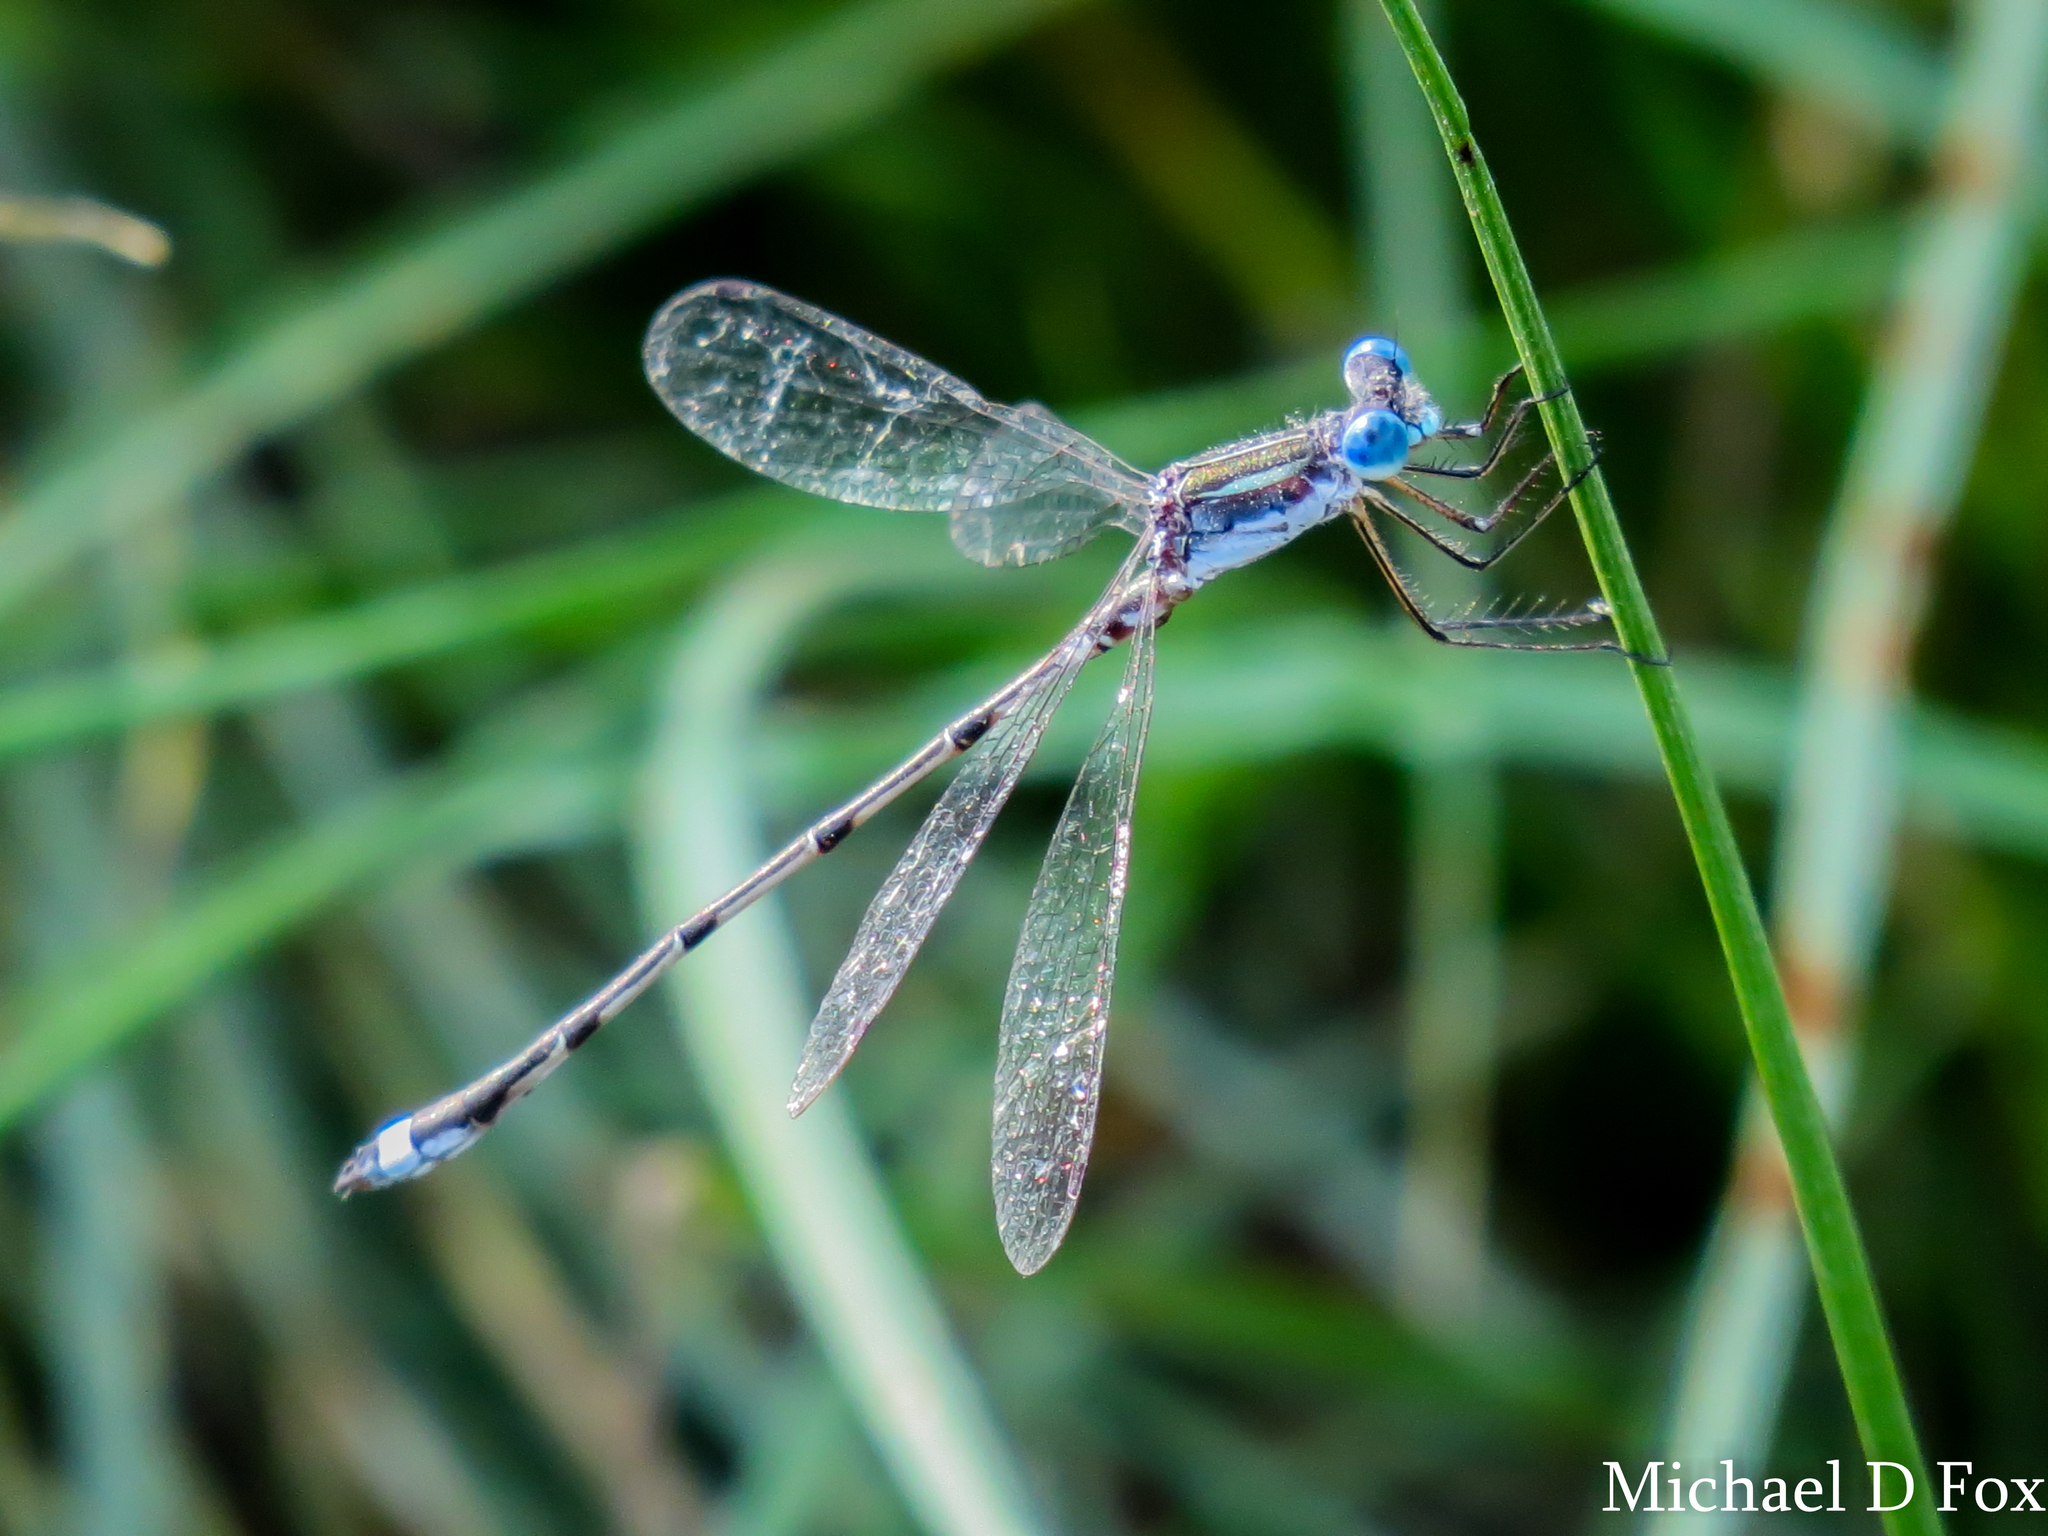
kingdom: Animalia
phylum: Arthropoda
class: Insecta
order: Odonata
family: Lestidae
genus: Lestes
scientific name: Lestes australis
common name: Southern spreadwing
